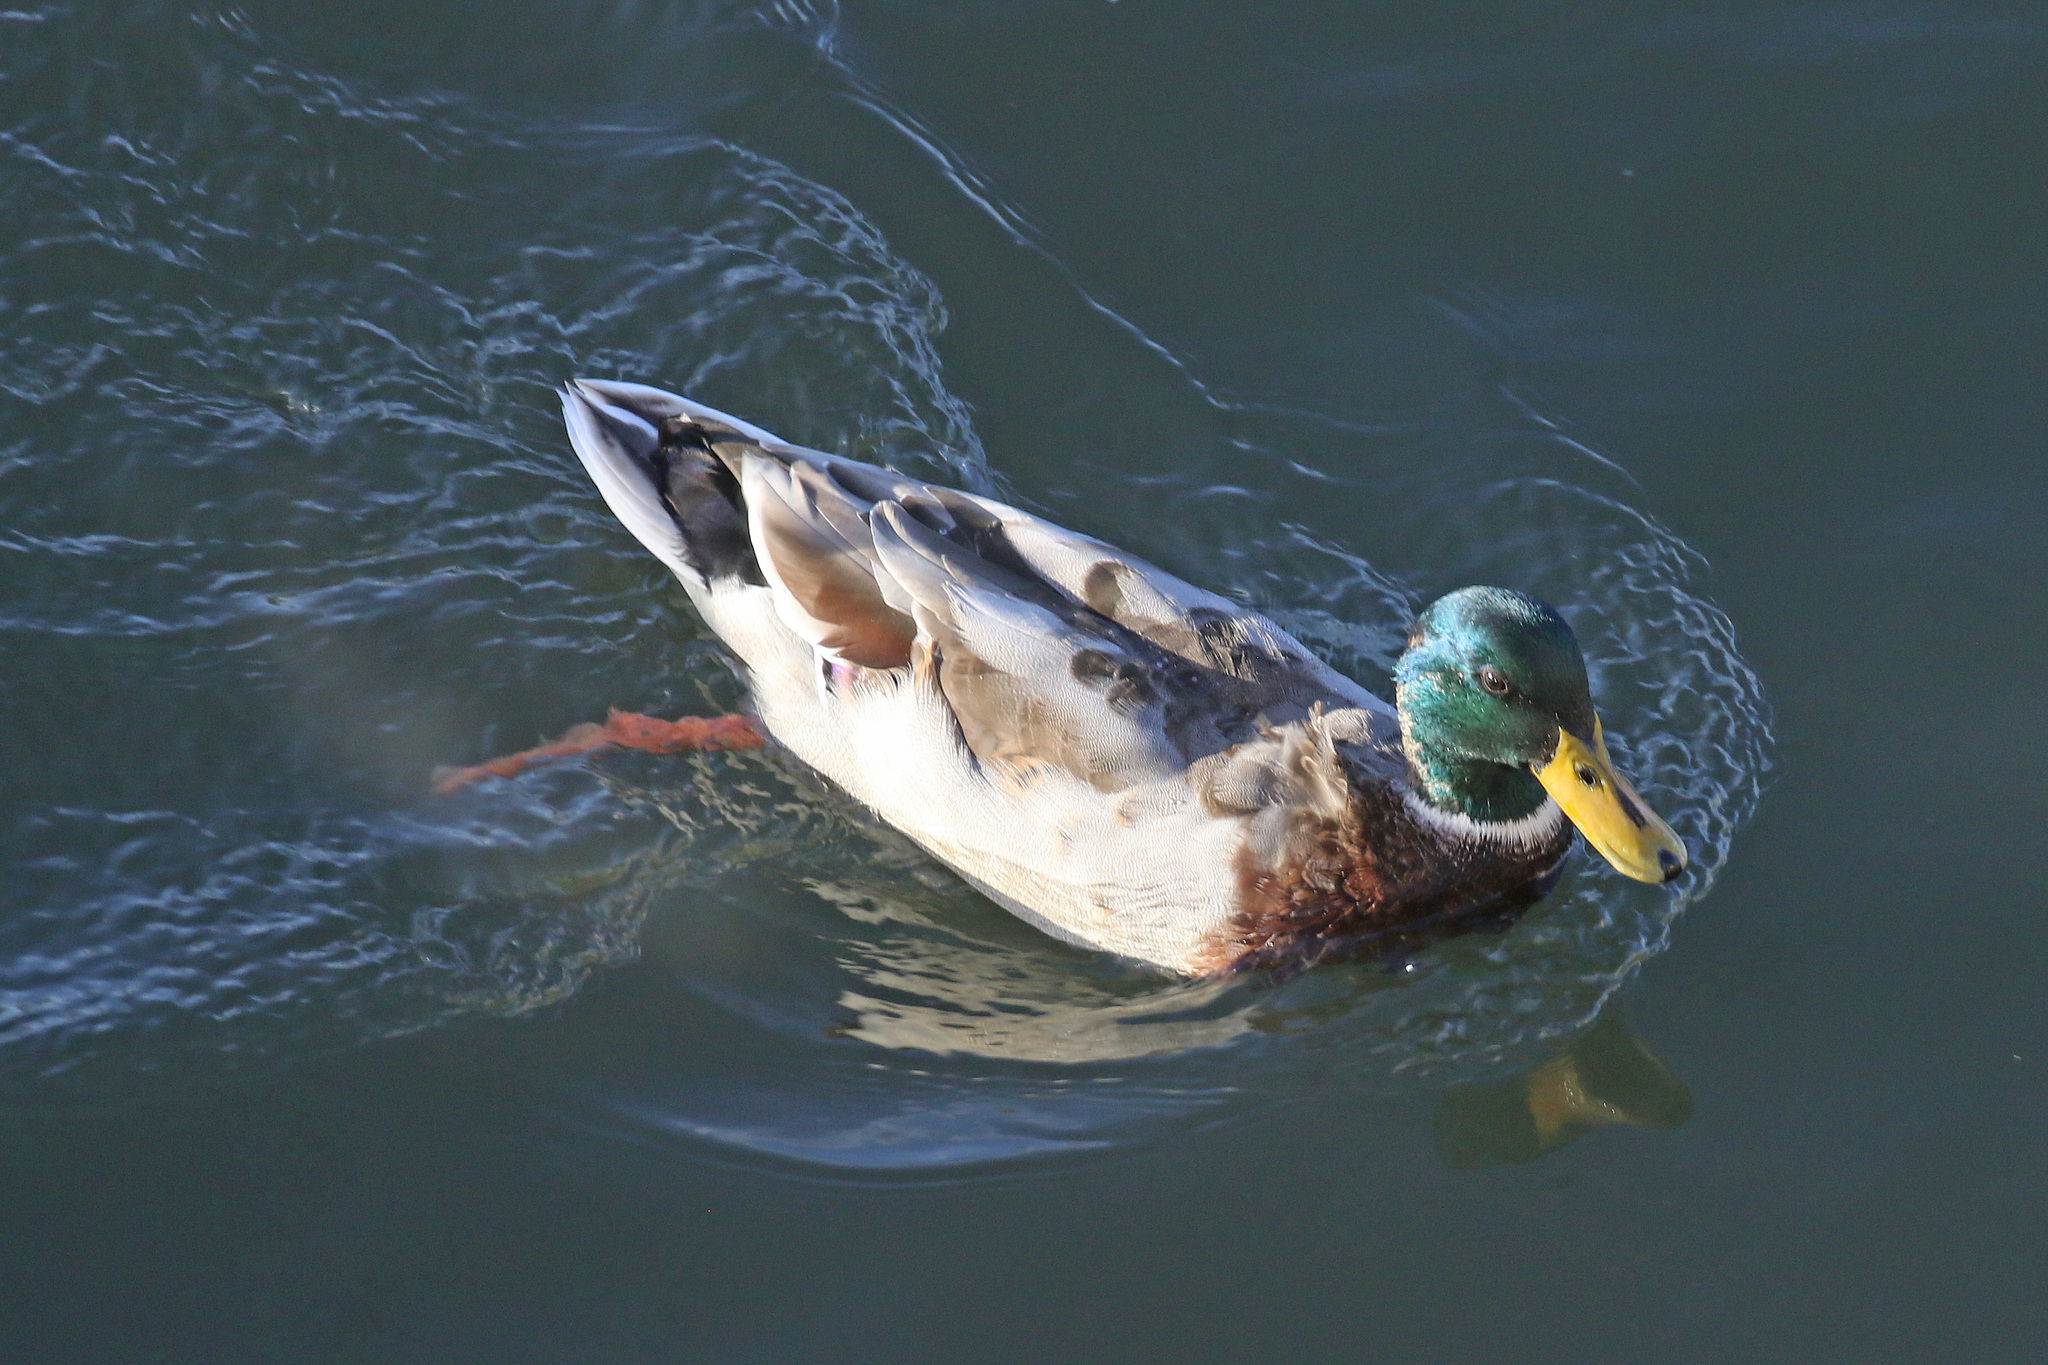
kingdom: Animalia
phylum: Chordata
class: Aves
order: Anseriformes
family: Anatidae
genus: Anas
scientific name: Anas platyrhynchos
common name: Mallard
